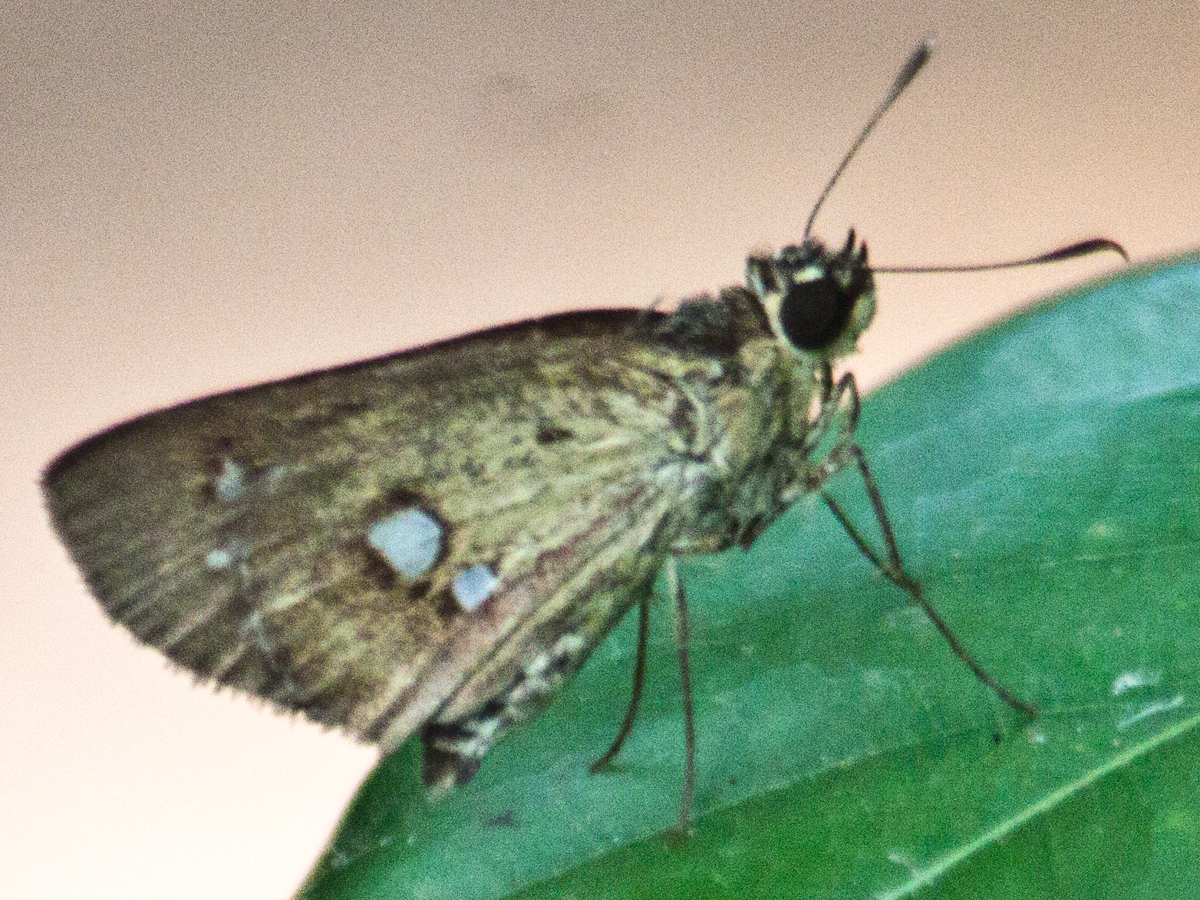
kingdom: Animalia
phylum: Arthropoda
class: Insecta
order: Lepidoptera
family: Hesperiidae
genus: Scobura
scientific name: Scobura isota
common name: Swinhoe's forest bob
